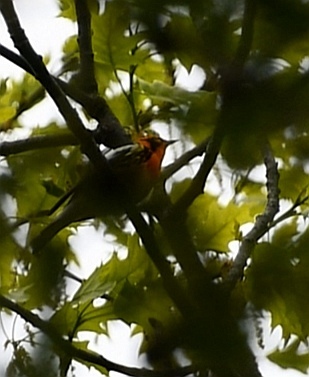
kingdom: Animalia
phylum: Chordata
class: Aves
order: Passeriformes
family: Parulidae
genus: Setophaga
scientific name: Setophaga fusca
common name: Blackburnian warbler
